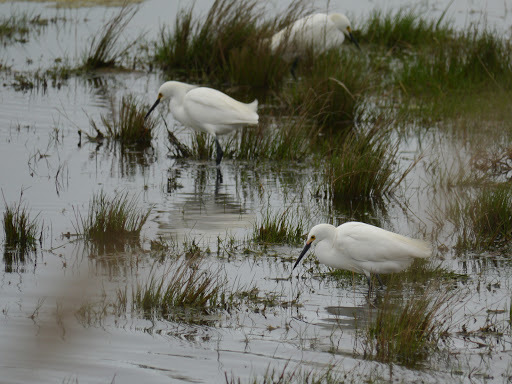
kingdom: Animalia
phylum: Chordata
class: Aves
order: Pelecaniformes
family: Ardeidae
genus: Egretta
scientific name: Egretta thula
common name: Snowy egret
